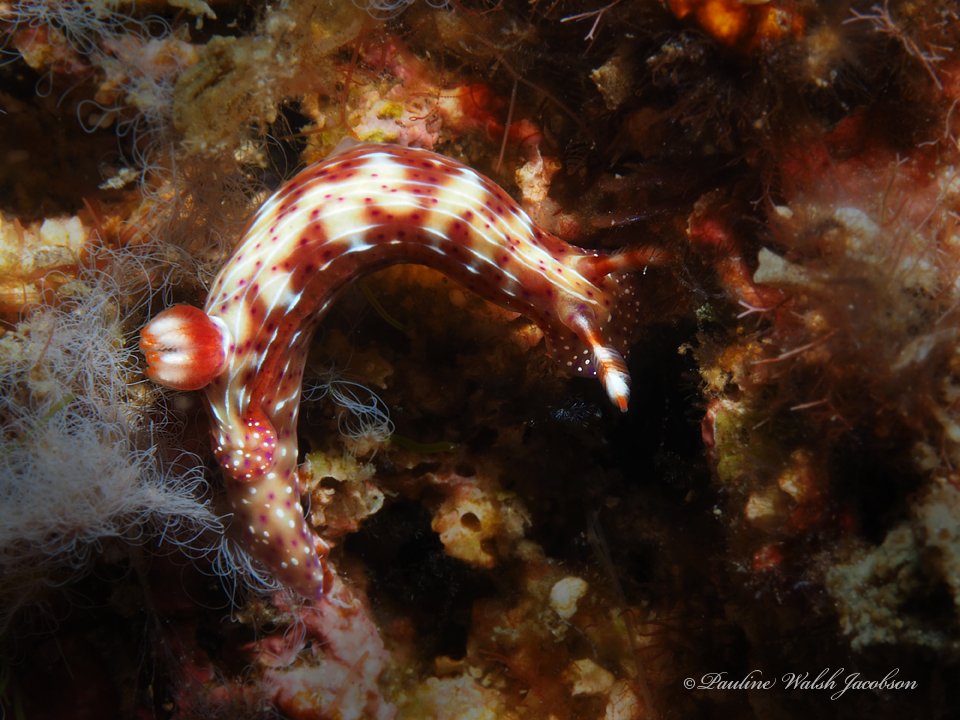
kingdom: Animalia
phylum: Mollusca
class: Gastropoda
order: Nudibranchia
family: Chromodorididae
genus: Hypselodoris
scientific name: Hypselodoris decorata
